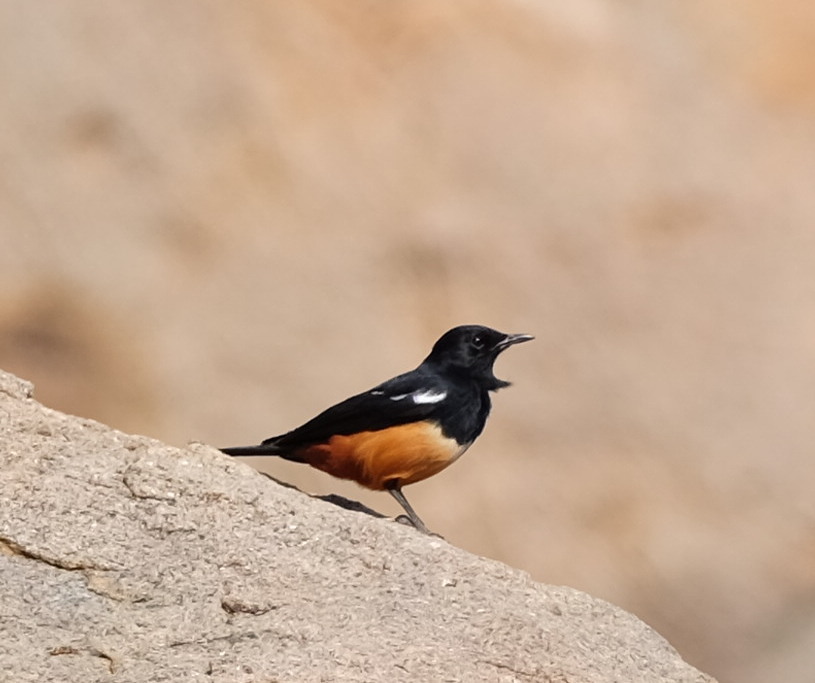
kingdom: Animalia
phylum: Chordata
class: Aves
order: Passeriformes
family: Muscicapidae
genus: Thamnolaea
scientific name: Thamnolaea cinnamomeiventris
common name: Mocking cliff chat
